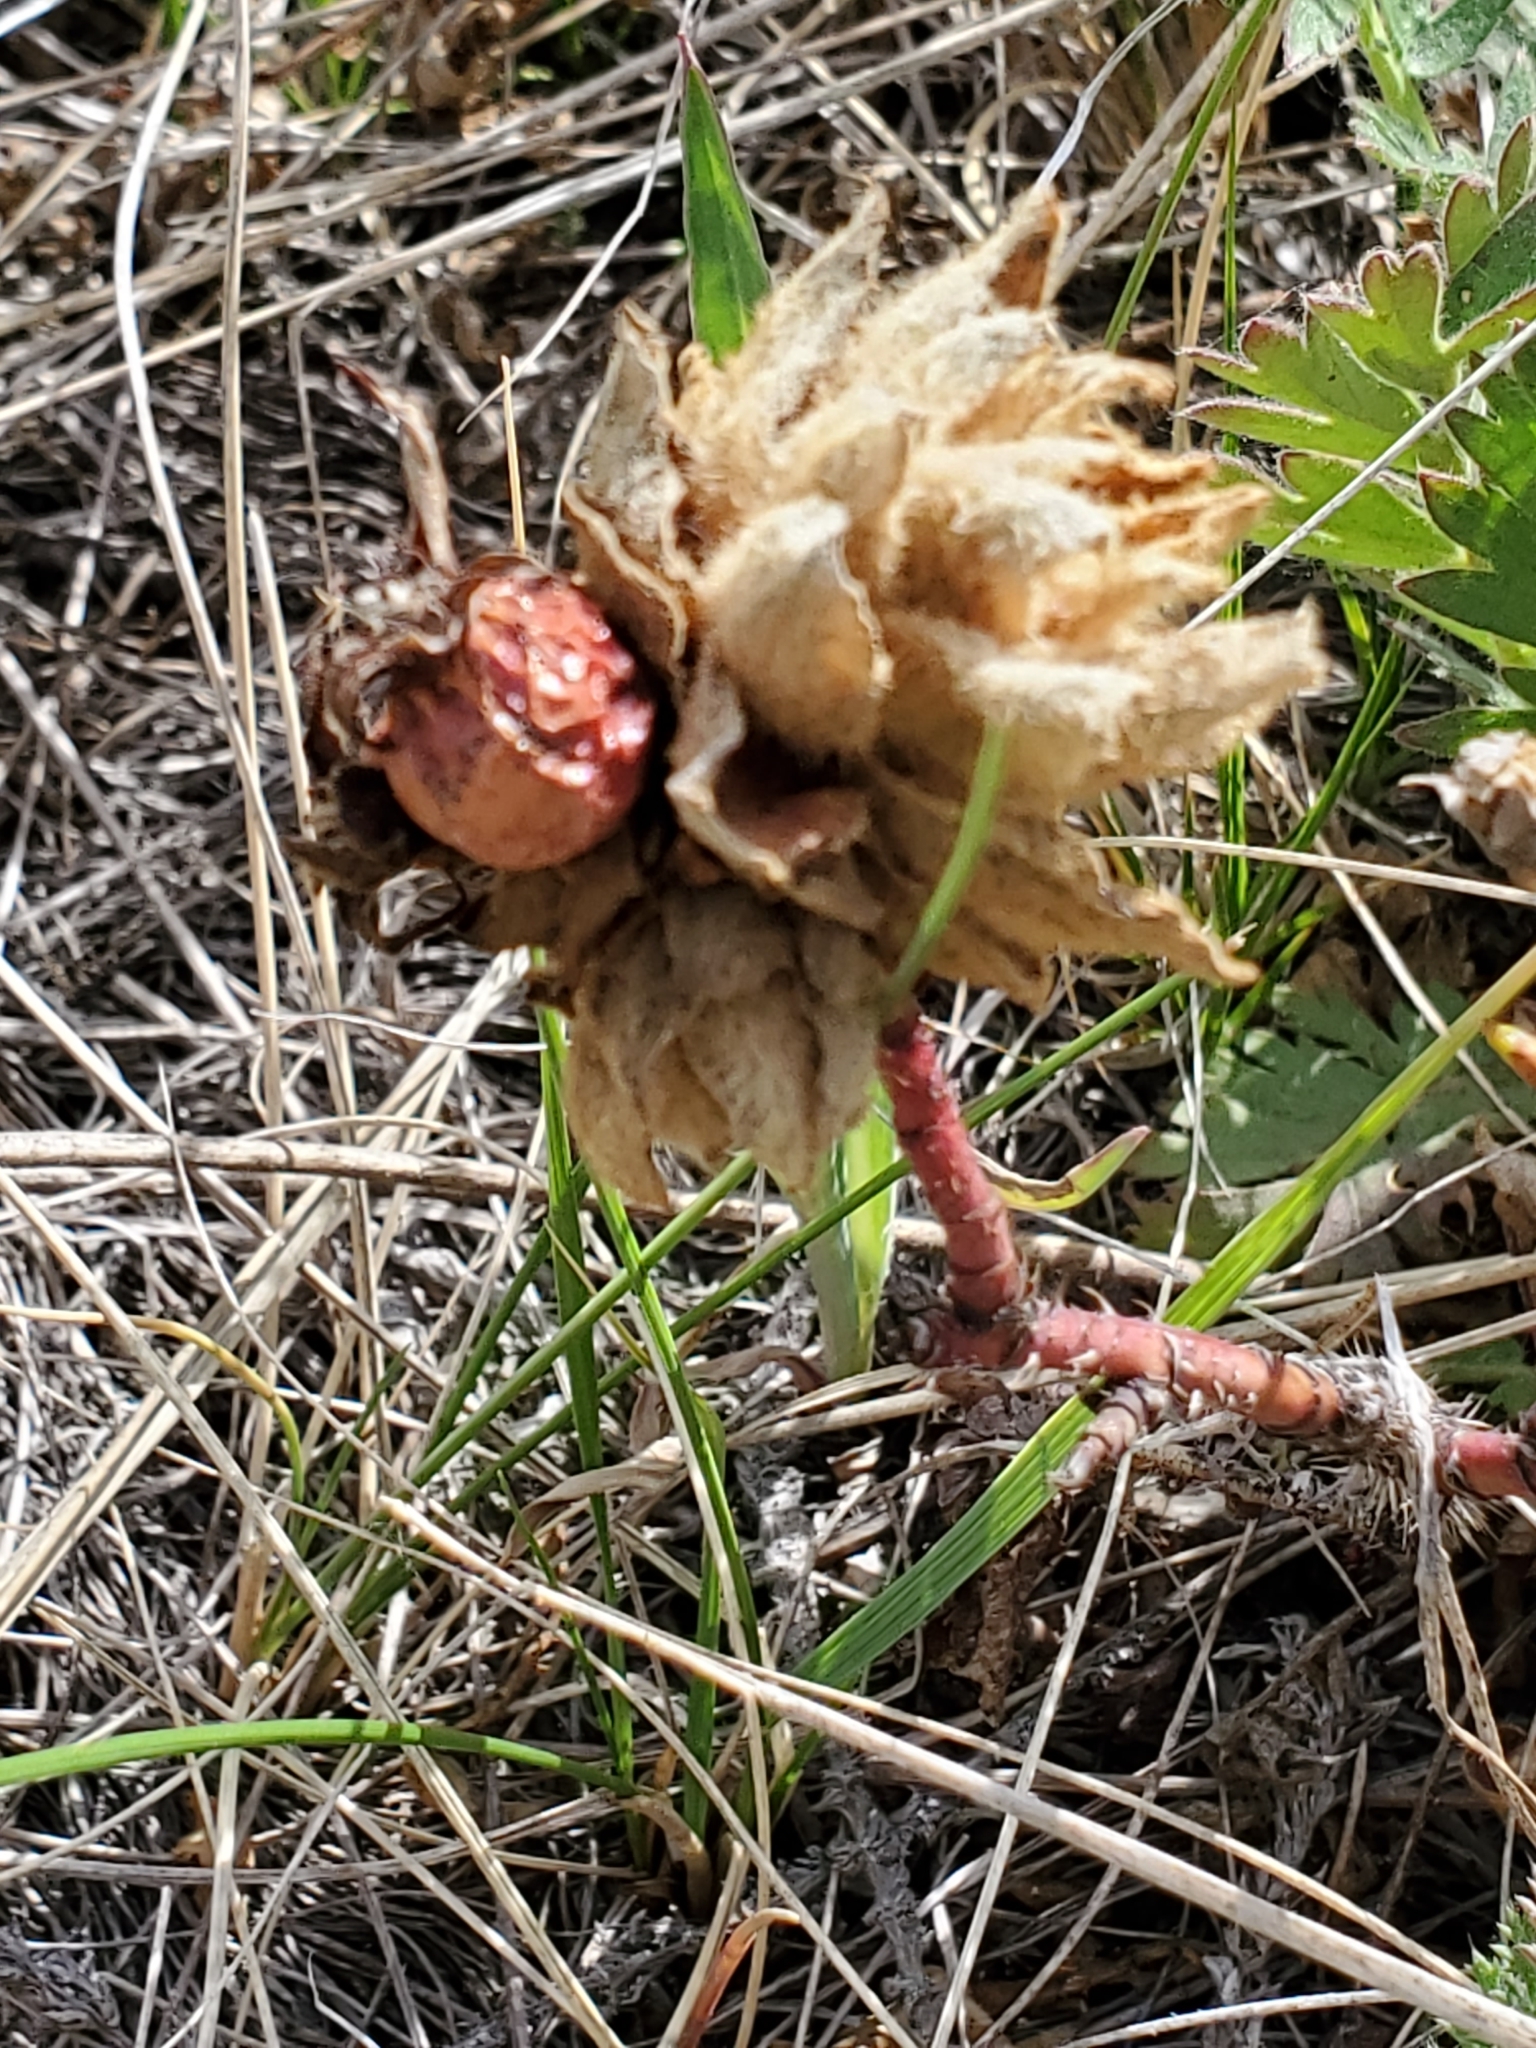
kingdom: Animalia
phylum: Arthropoda
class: Insecta
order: Diptera
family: Cecidomyiidae
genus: Rabdophaga
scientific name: Rabdophaga rosacea
